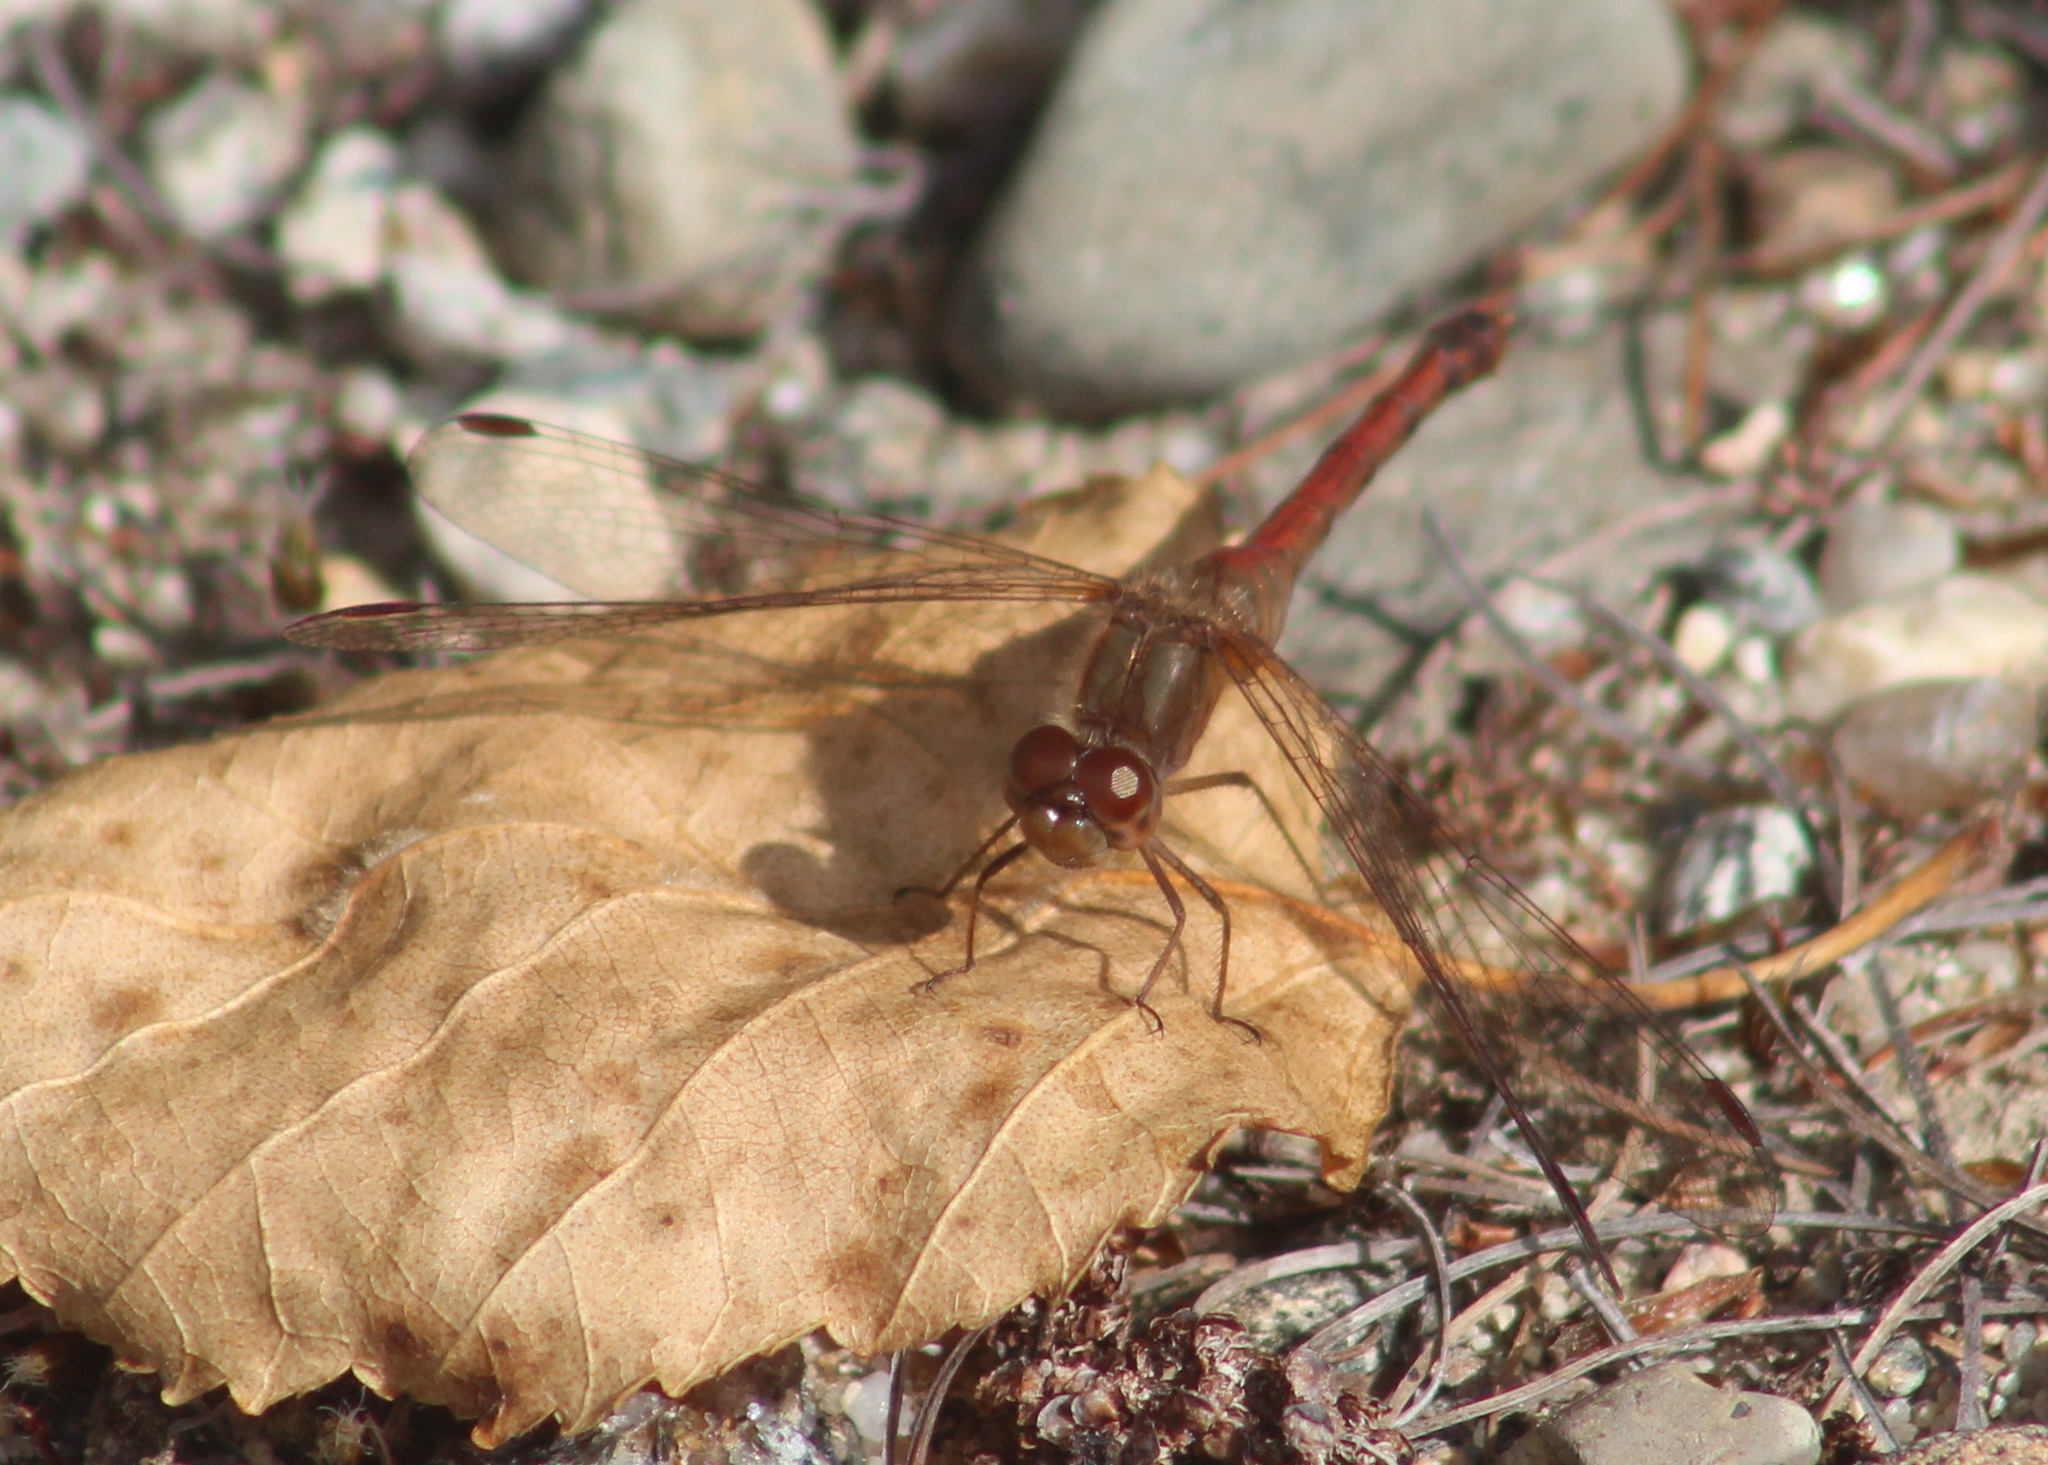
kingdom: Animalia
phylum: Arthropoda
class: Insecta
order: Odonata
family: Libellulidae
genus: Sympetrum
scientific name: Sympetrum vicinum
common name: Autumn meadowhawk
